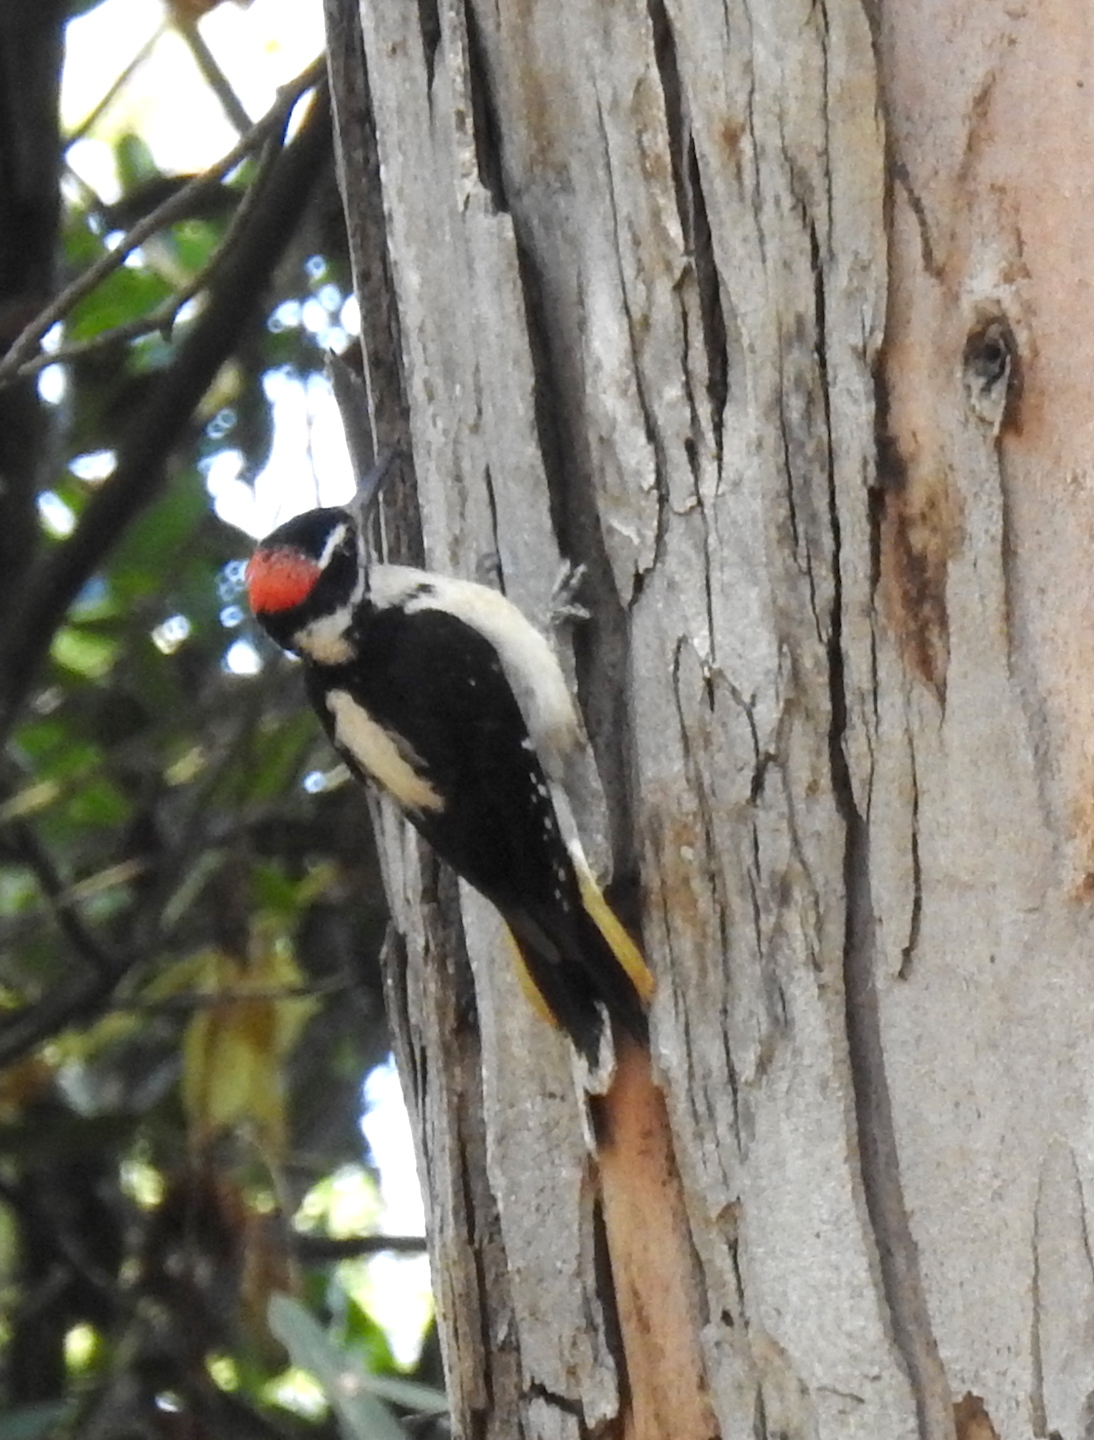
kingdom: Animalia
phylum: Chordata
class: Aves
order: Piciformes
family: Picidae
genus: Leuconotopicus
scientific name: Leuconotopicus villosus
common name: Hairy woodpecker
